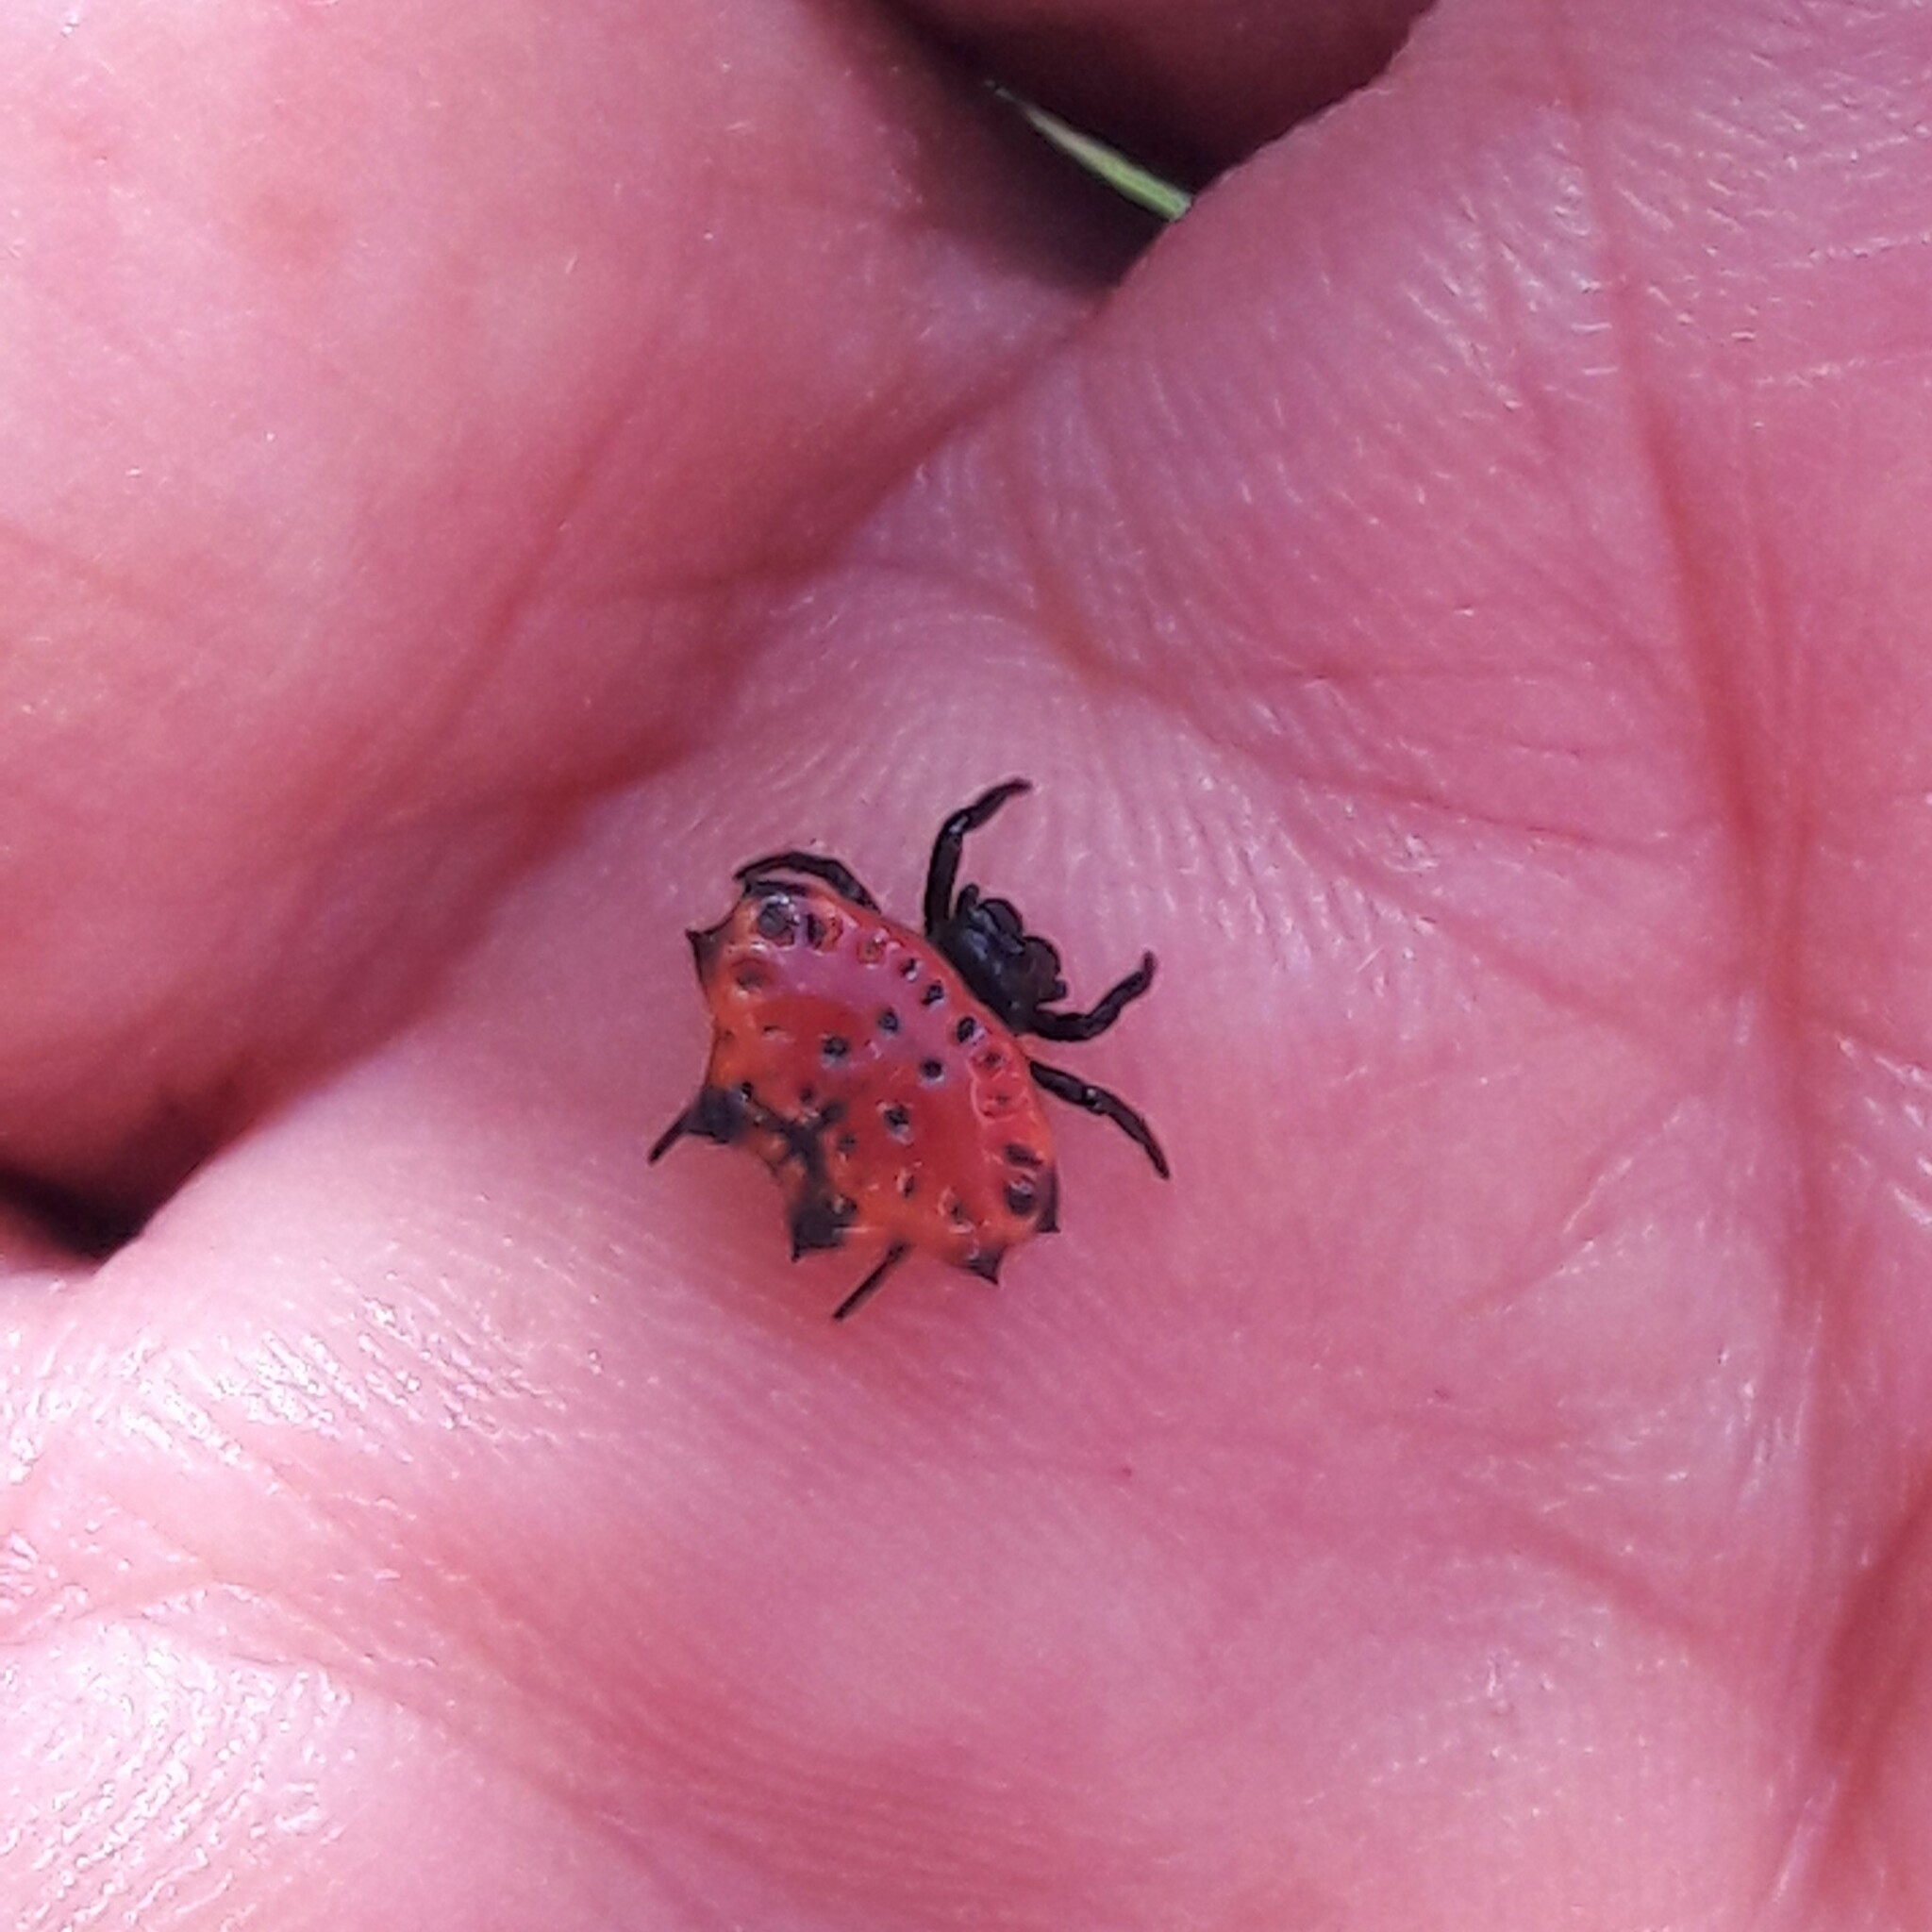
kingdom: Animalia
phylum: Arthropoda
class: Arachnida
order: Araneae
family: Araneidae
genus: Gasteracantha
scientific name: Gasteracantha cancriformis
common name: Orb weavers
